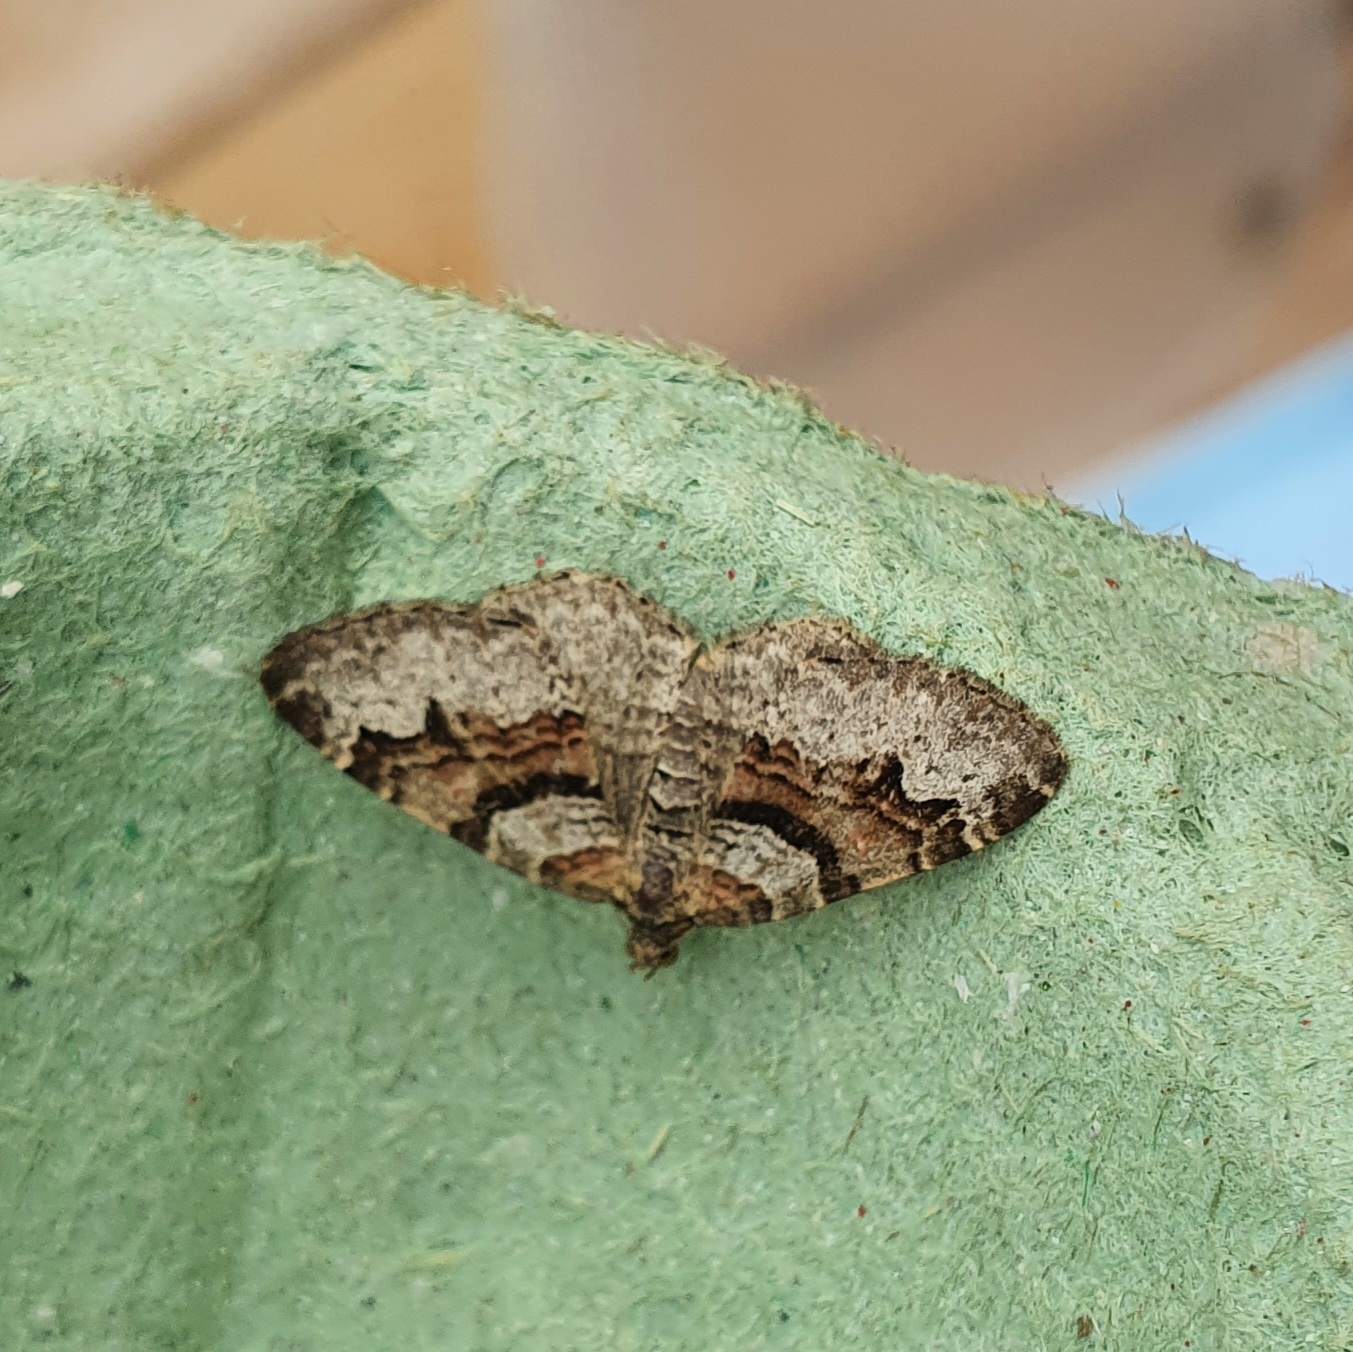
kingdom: Animalia
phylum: Arthropoda
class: Insecta
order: Lepidoptera
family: Geometridae
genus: Xanthorhoe
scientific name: Xanthorhoe designata
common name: Flame carpet
